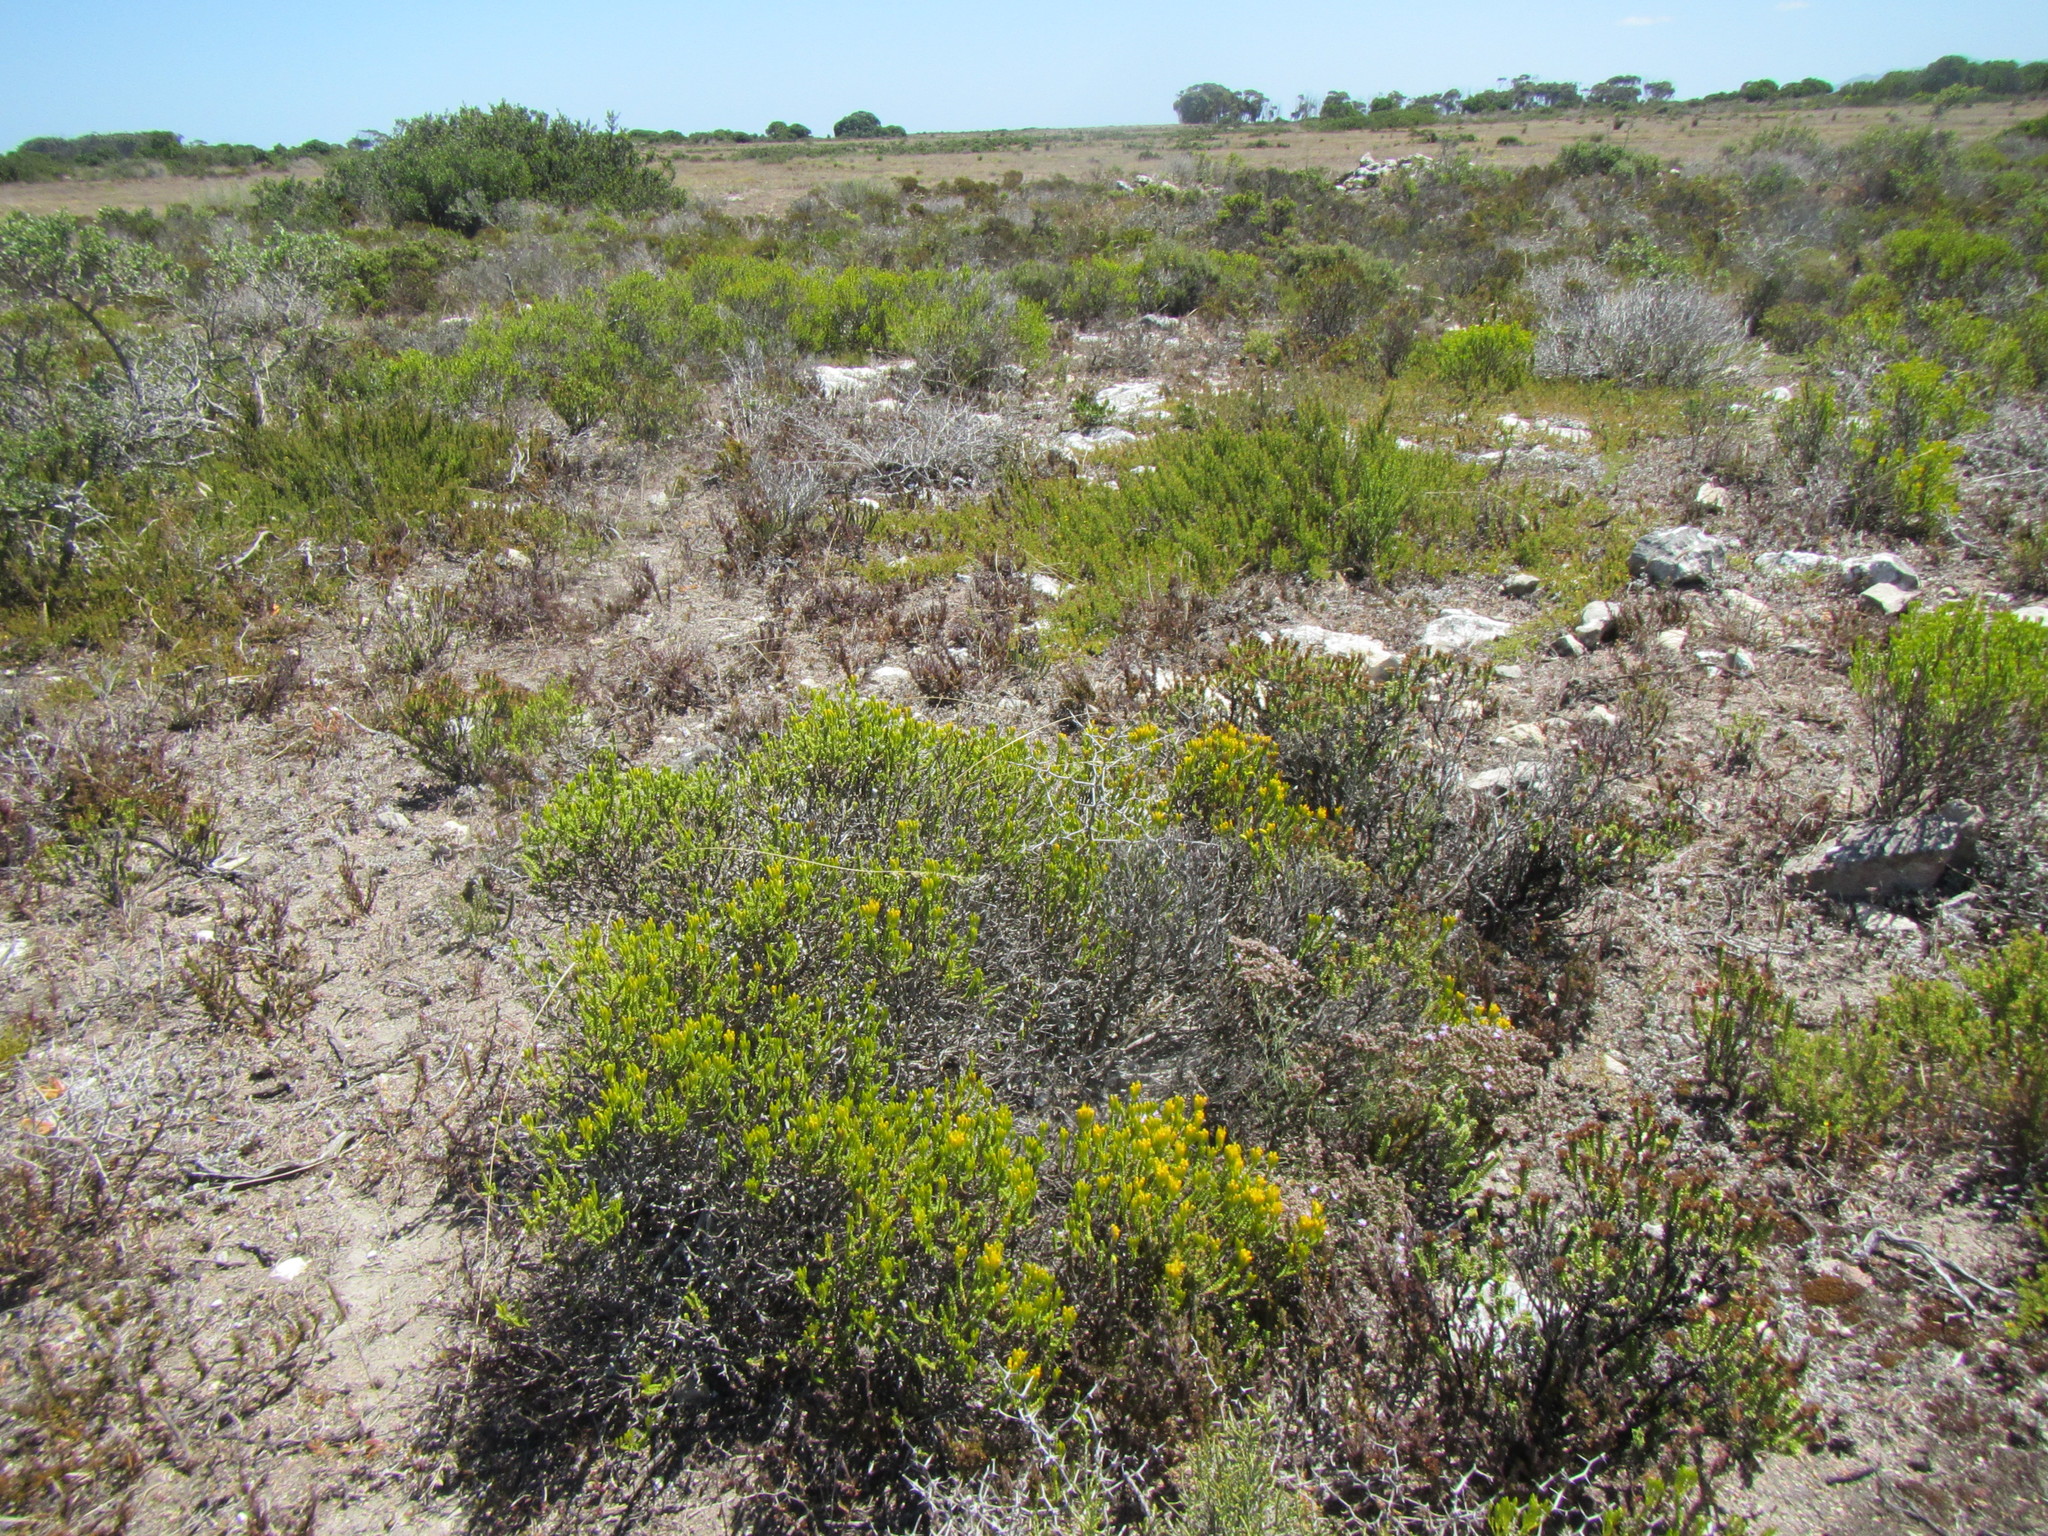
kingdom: Plantae
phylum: Tracheophyta
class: Magnoliopsida
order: Asterales
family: Asteraceae
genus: Pteronia
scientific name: Pteronia diosmifolia
